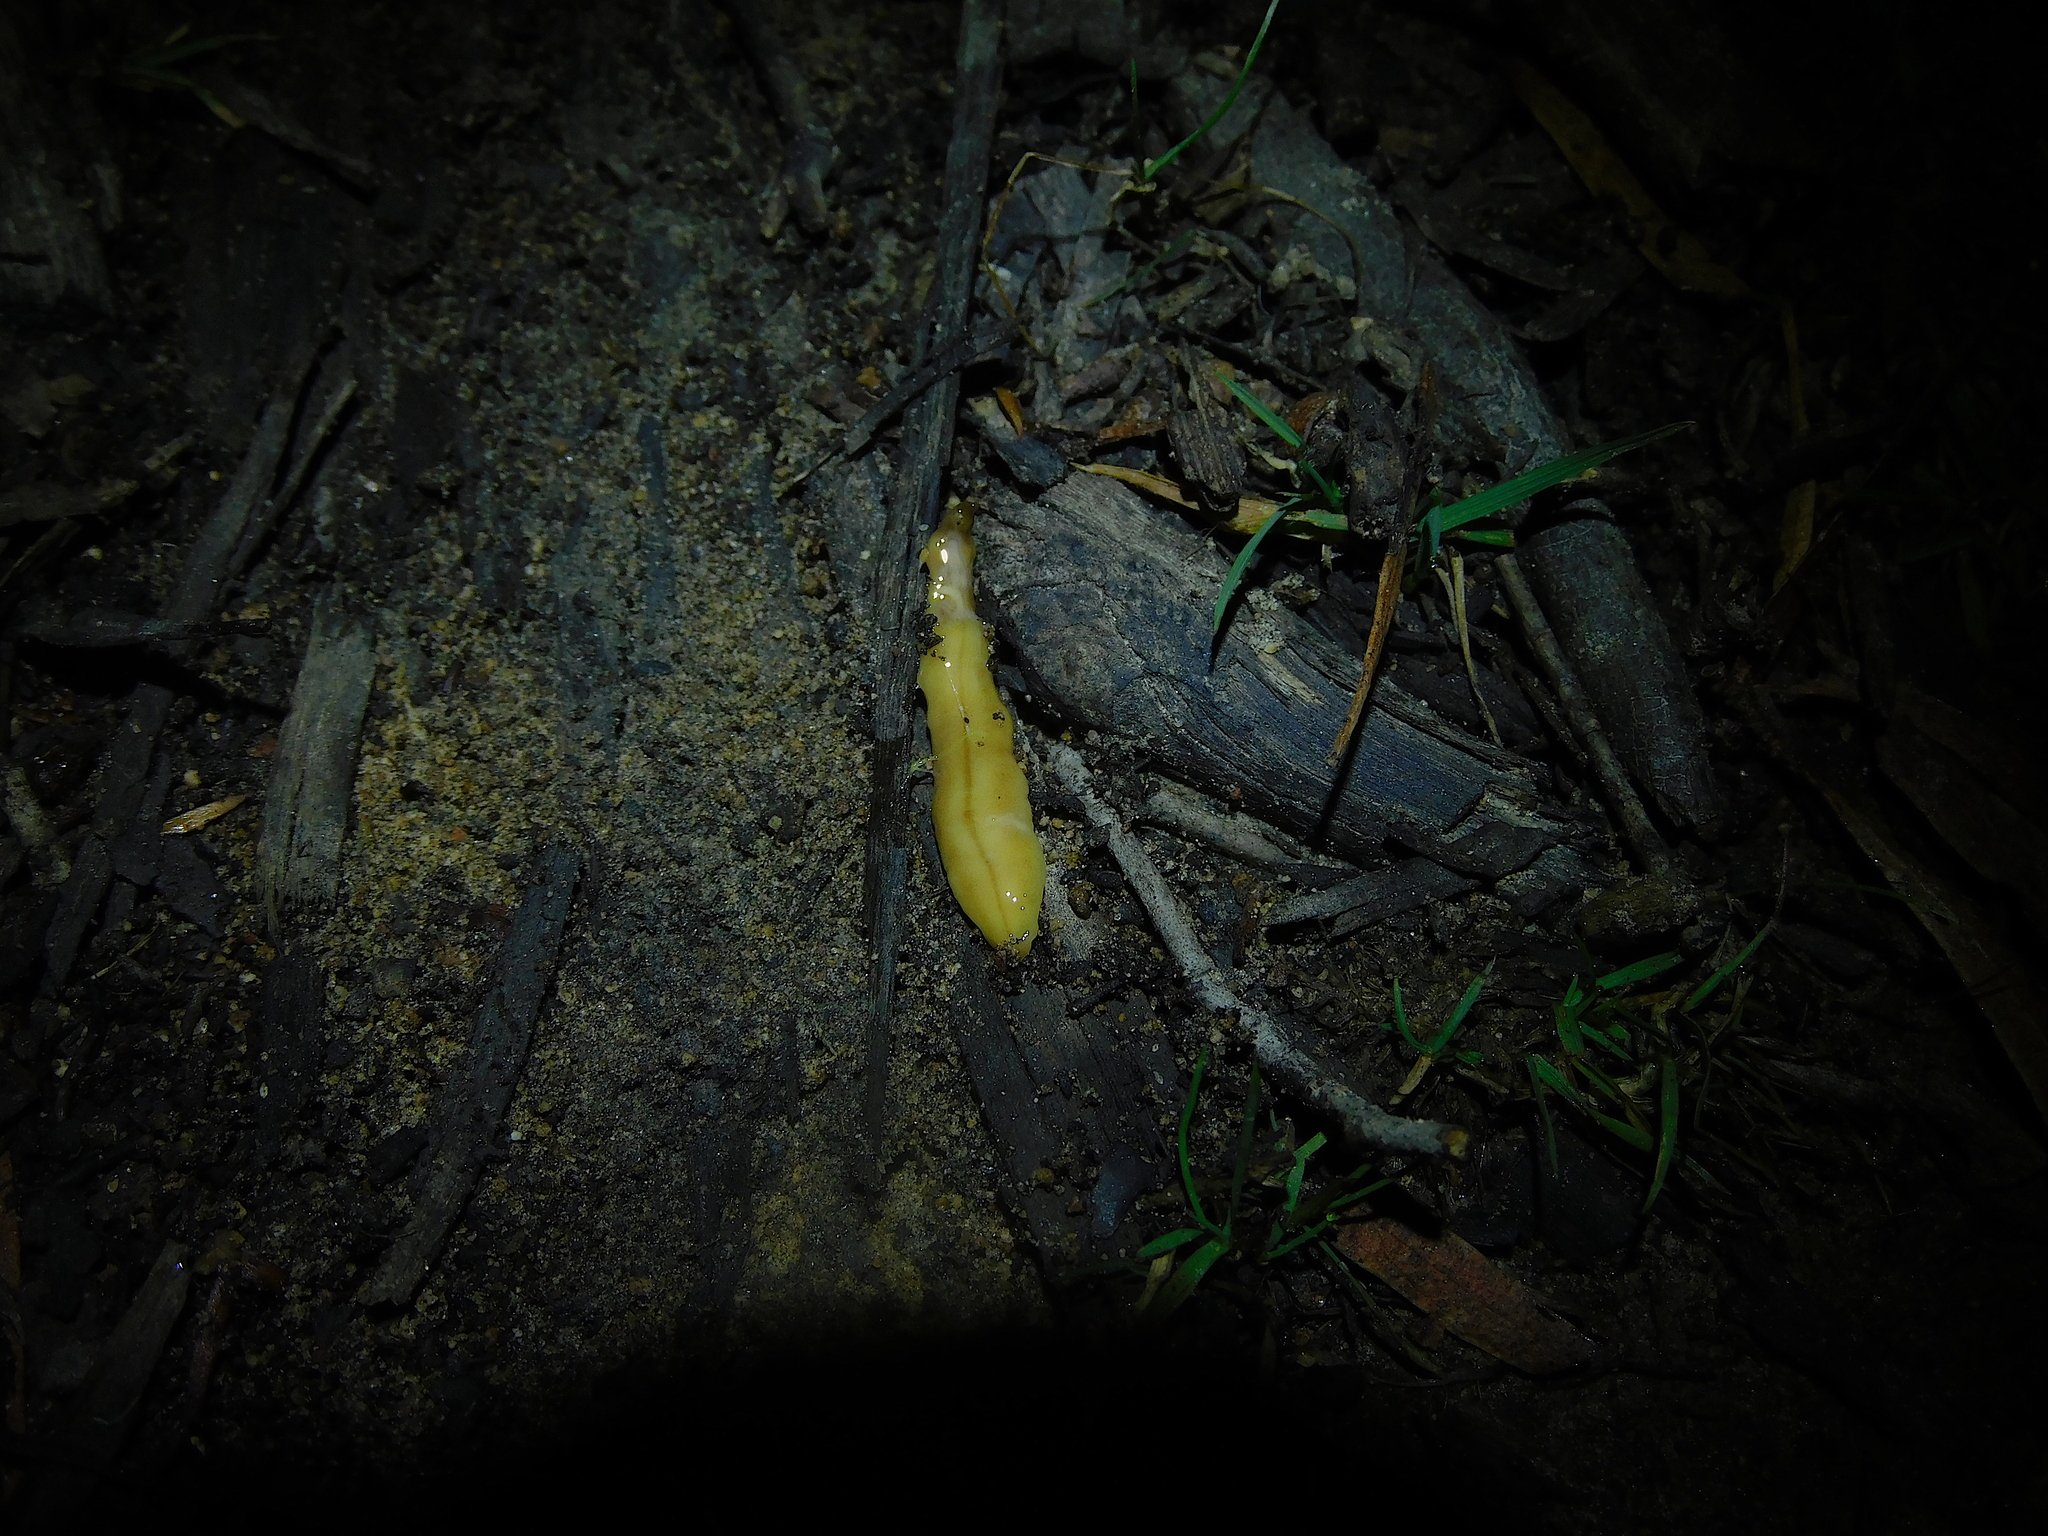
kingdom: Animalia
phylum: Platyhelminthes
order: Tricladida
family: Geoplanidae
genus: Tasmanoplana
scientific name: Tasmanoplana tasmaniana
